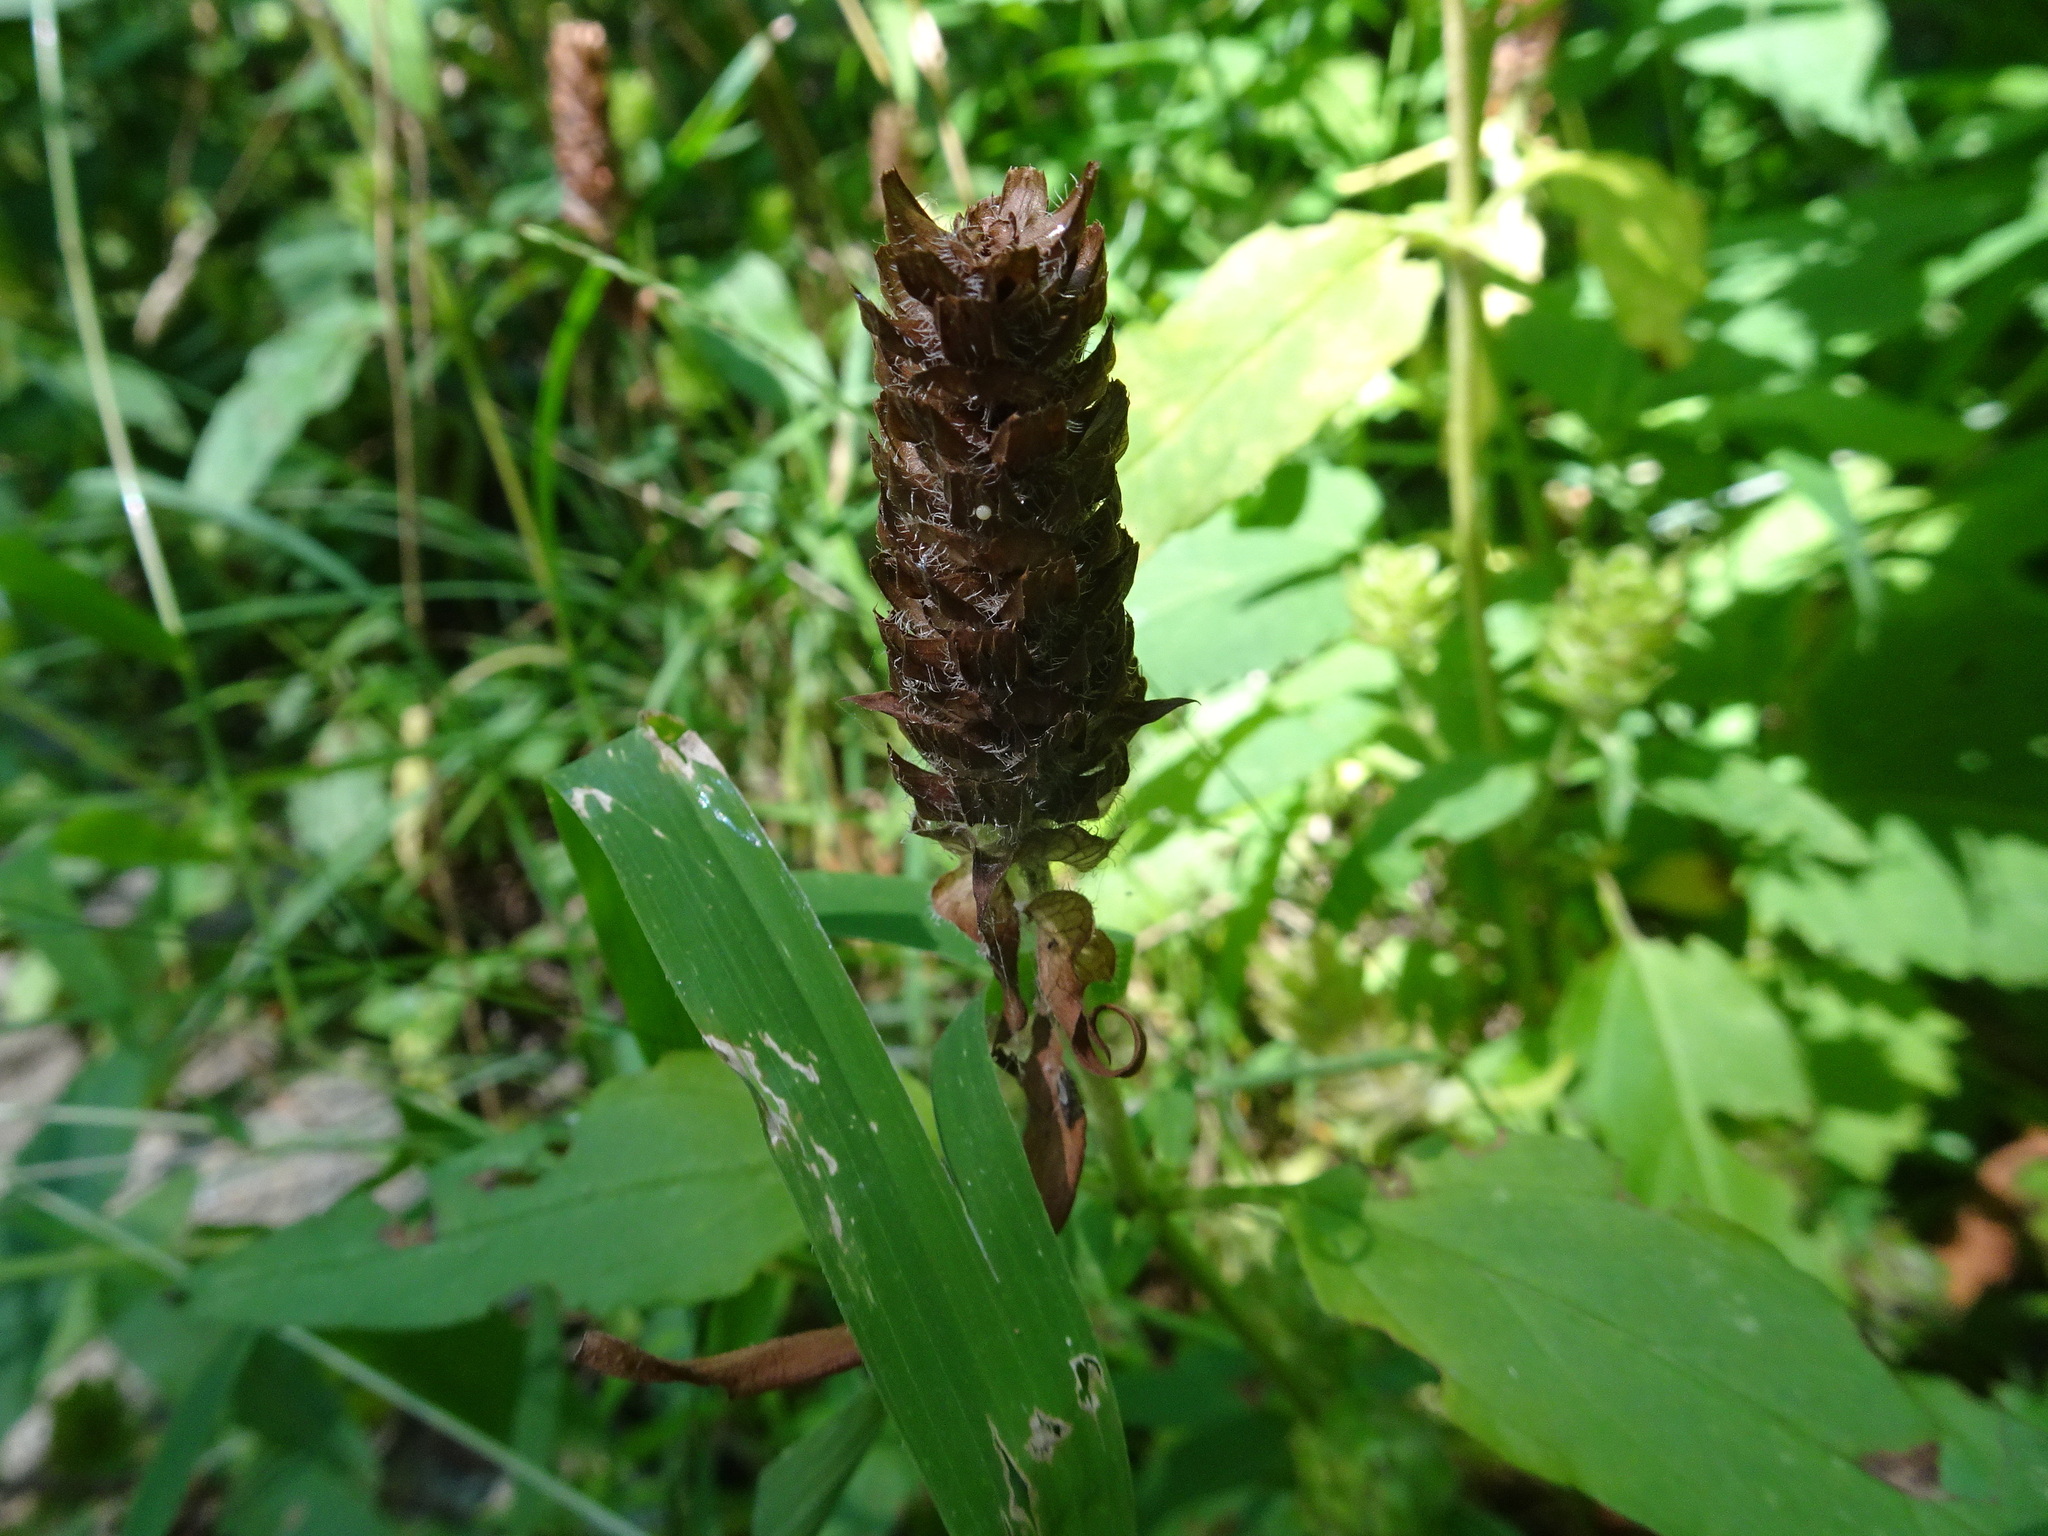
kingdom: Plantae
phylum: Tracheophyta
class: Magnoliopsida
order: Lamiales
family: Lamiaceae
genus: Prunella
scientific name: Prunella vulgaris
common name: Heal-all
